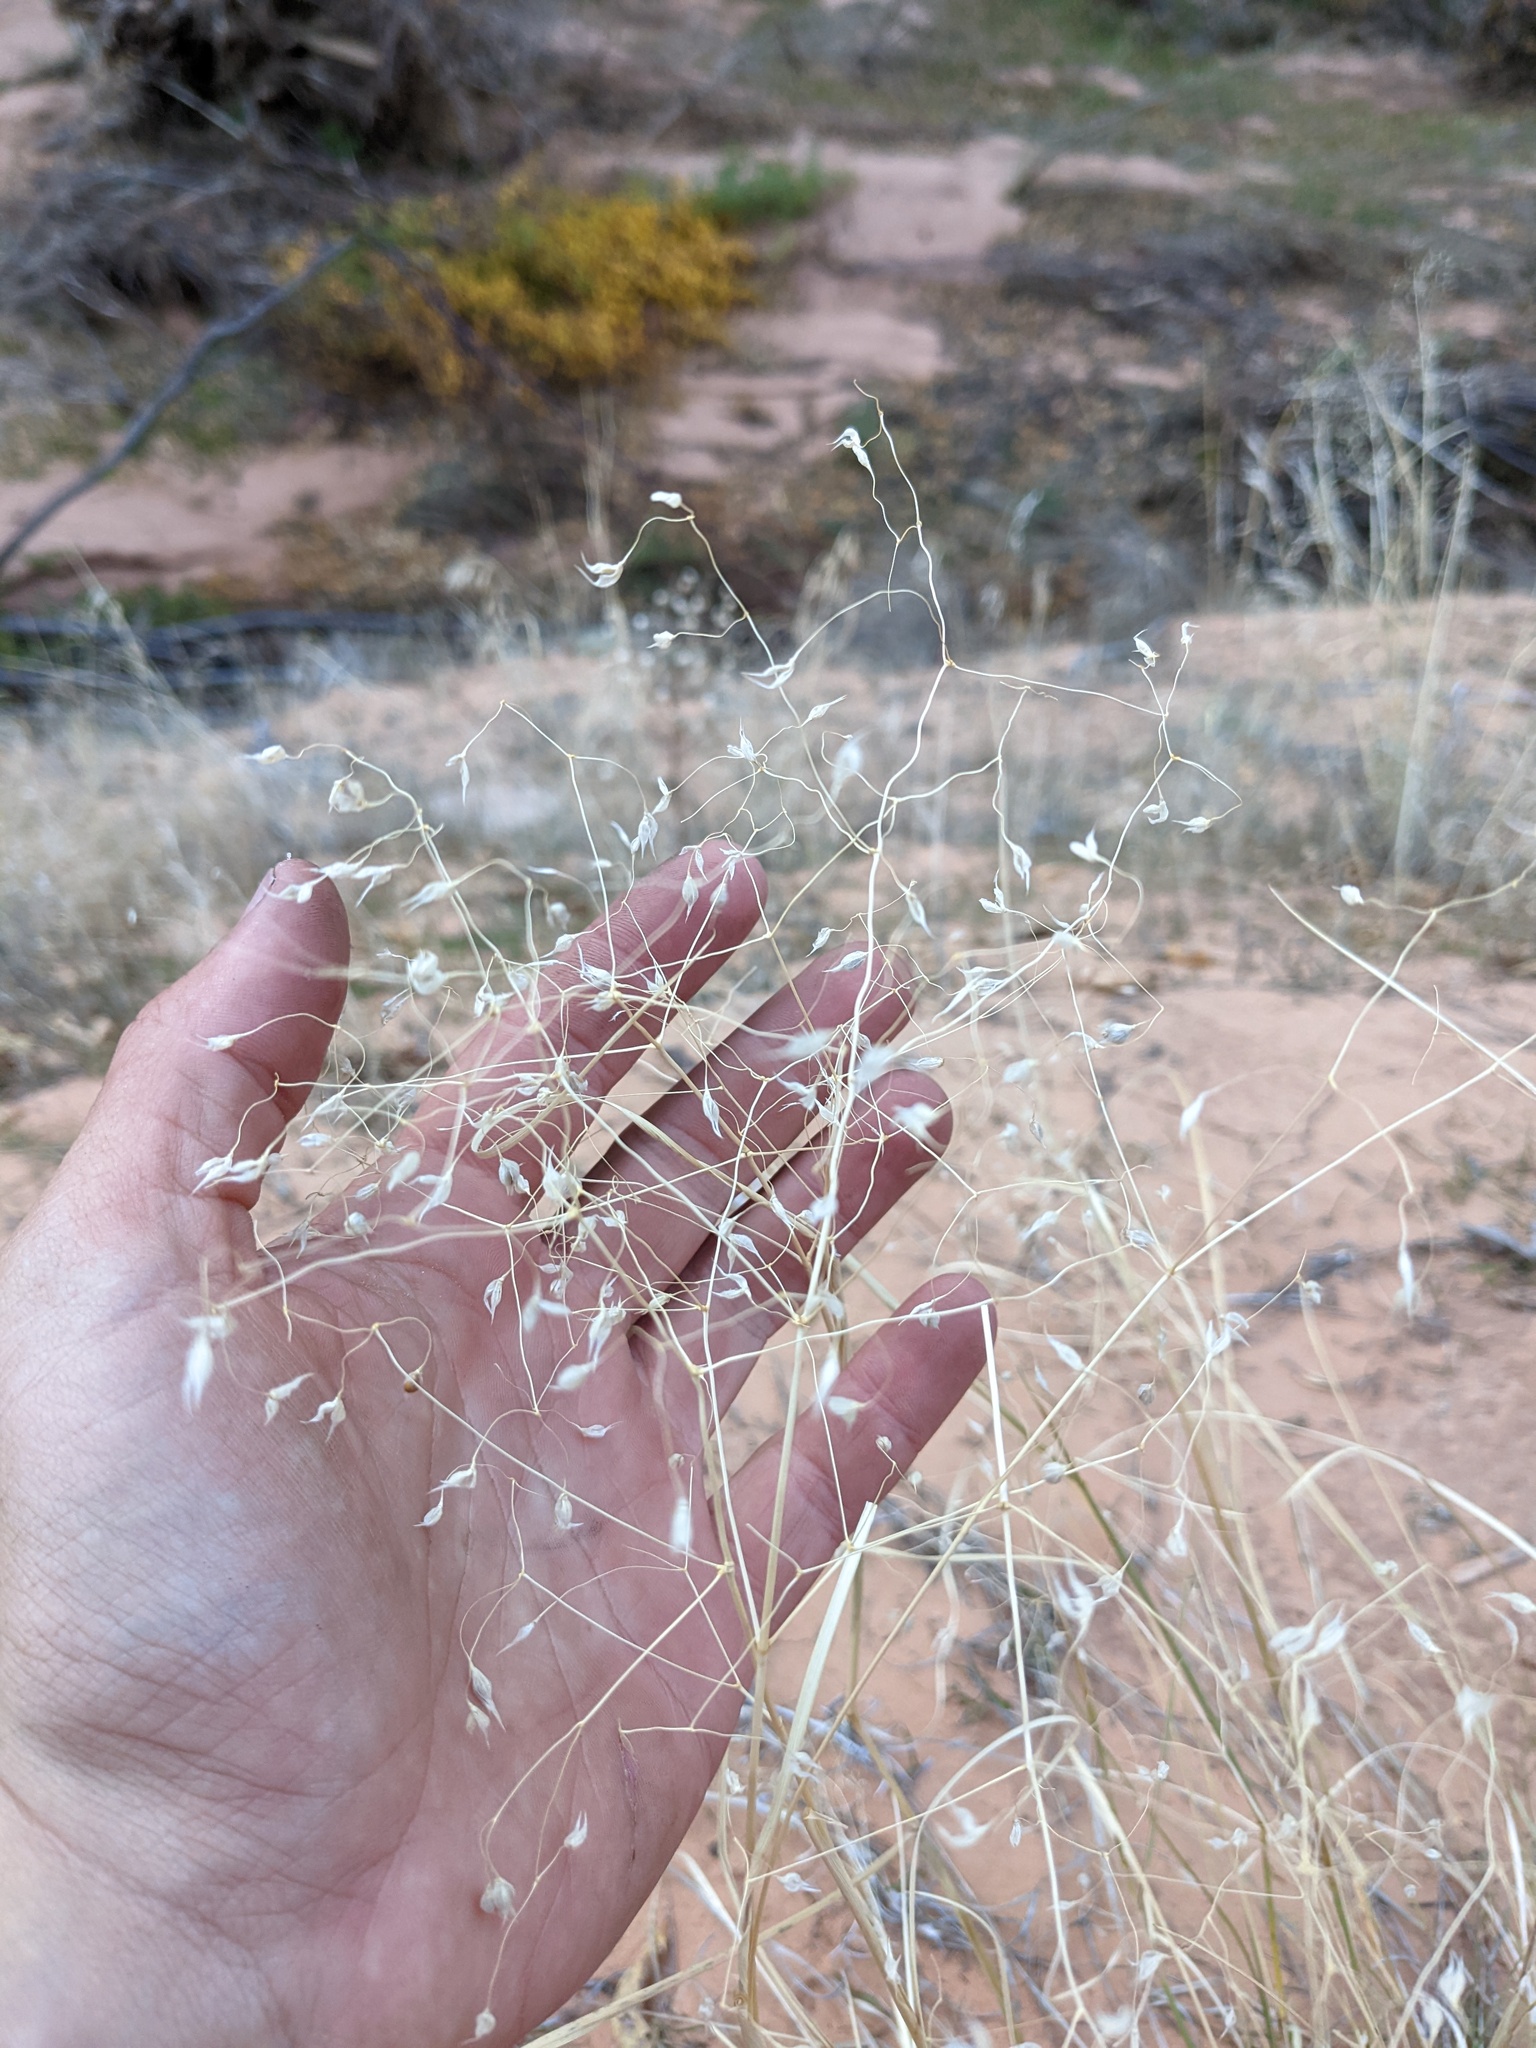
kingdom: Plantae
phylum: Tracheophyta
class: Liliopsida
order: Poales
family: Poaceae
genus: Eriocoma
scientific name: Eriocoma hymenoides
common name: Indian mountain ricegrass
